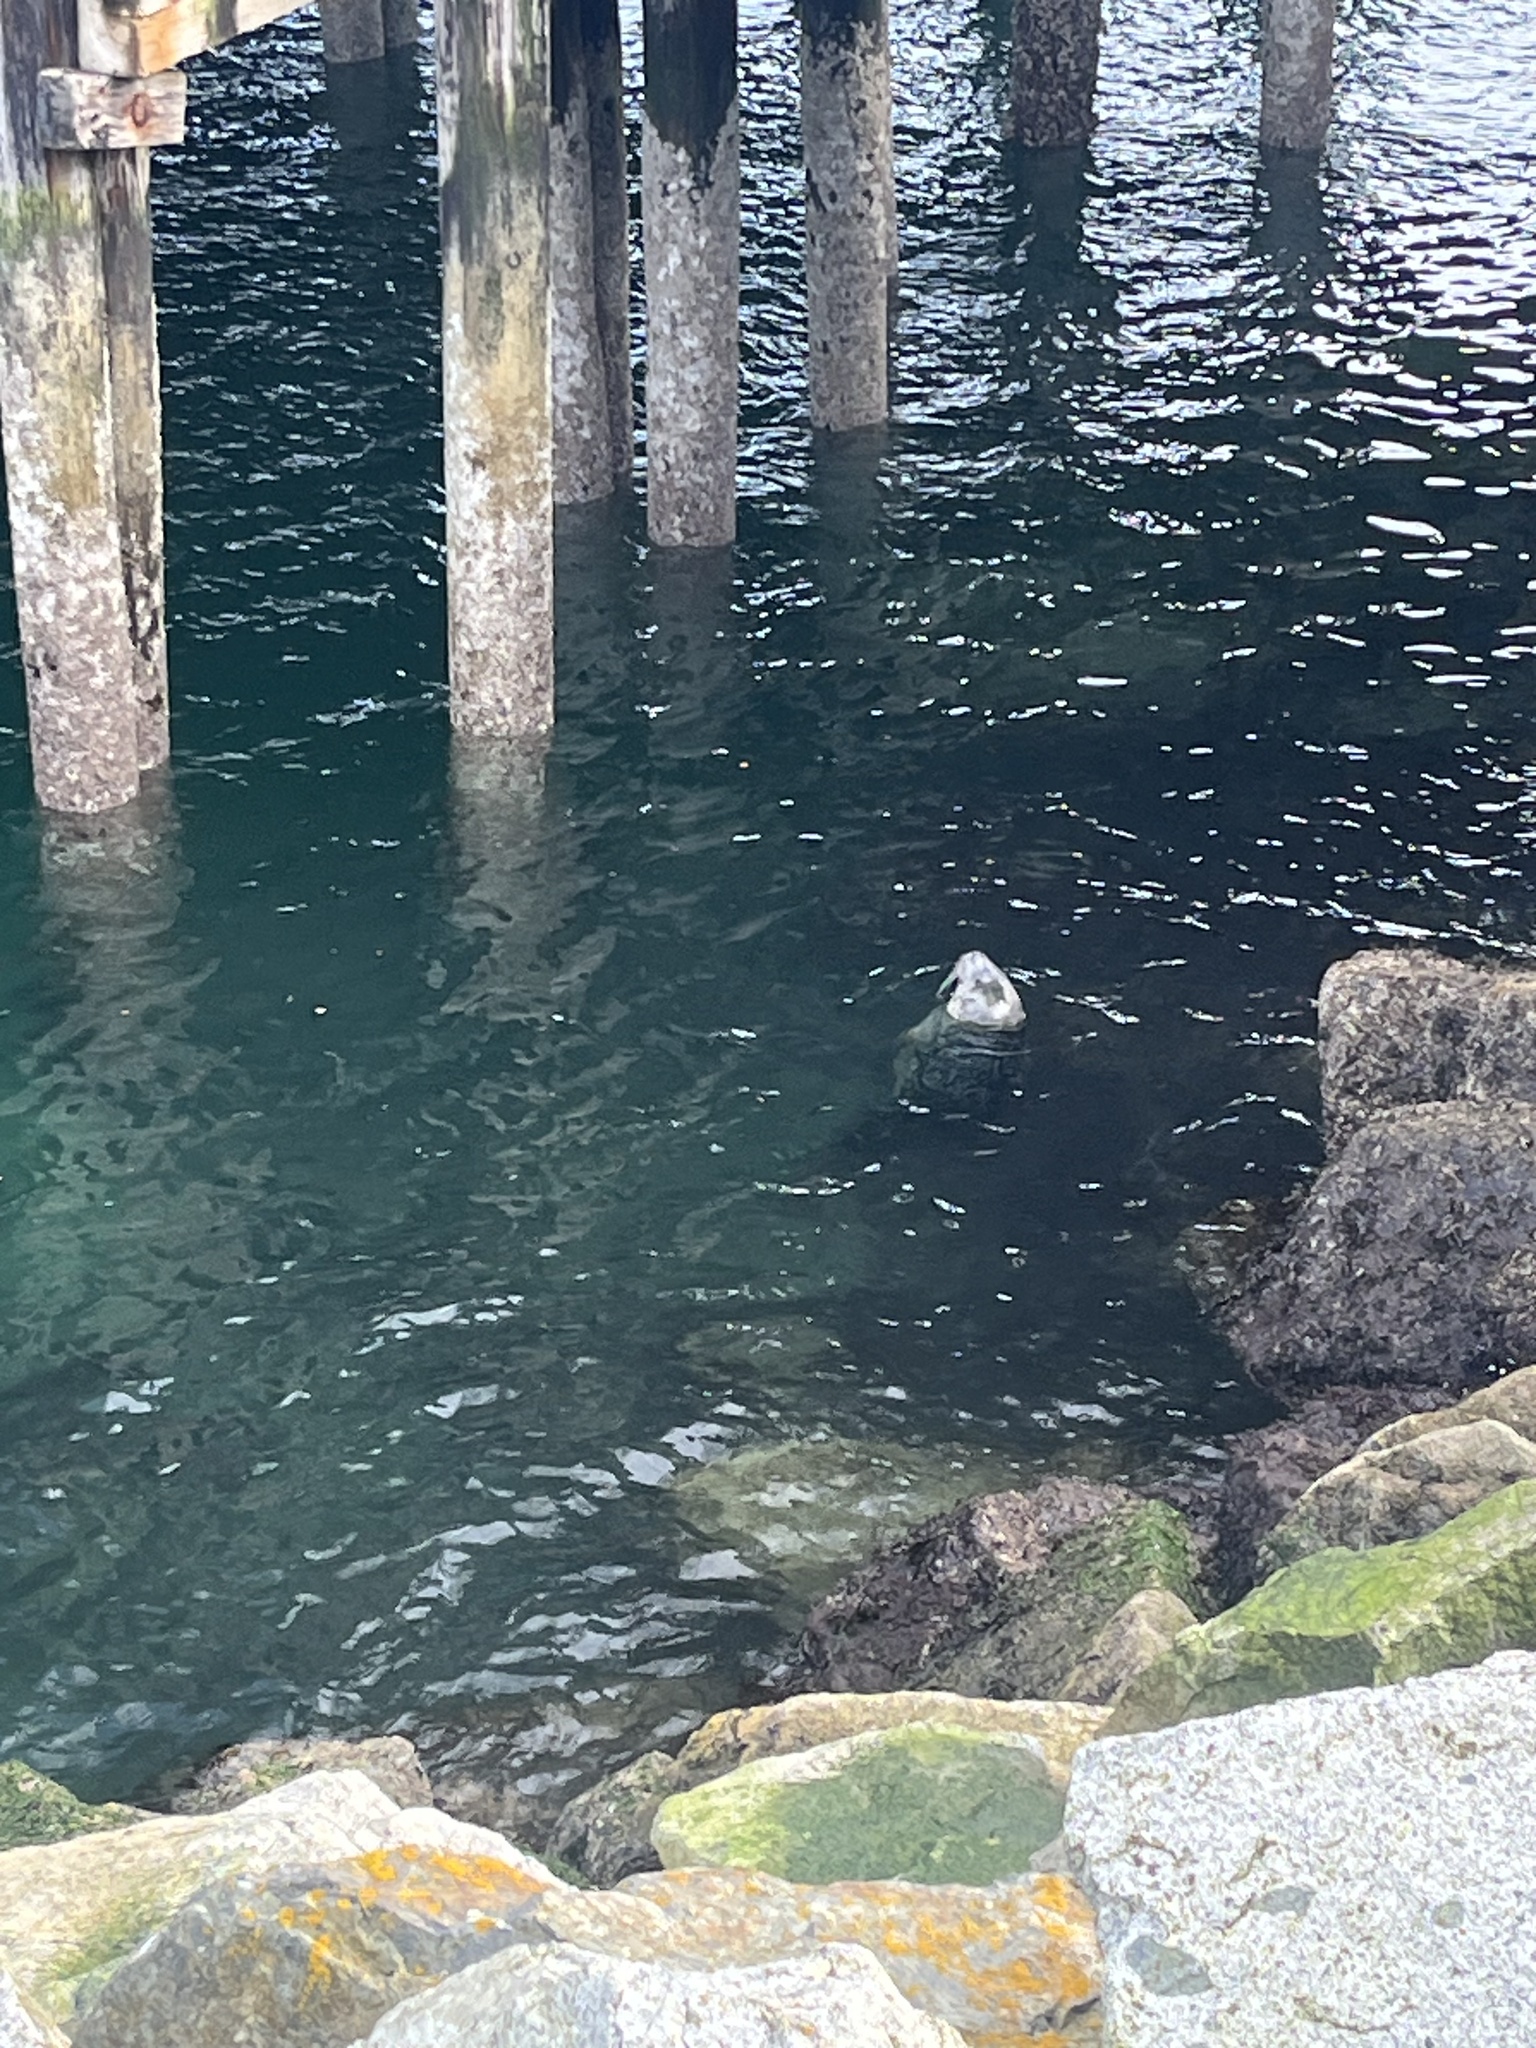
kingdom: Animalia
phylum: Chordata
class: Mammalia
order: Carnivora
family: Phocidae
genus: Phoca
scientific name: Phoca vitulina
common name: Harbor seal
